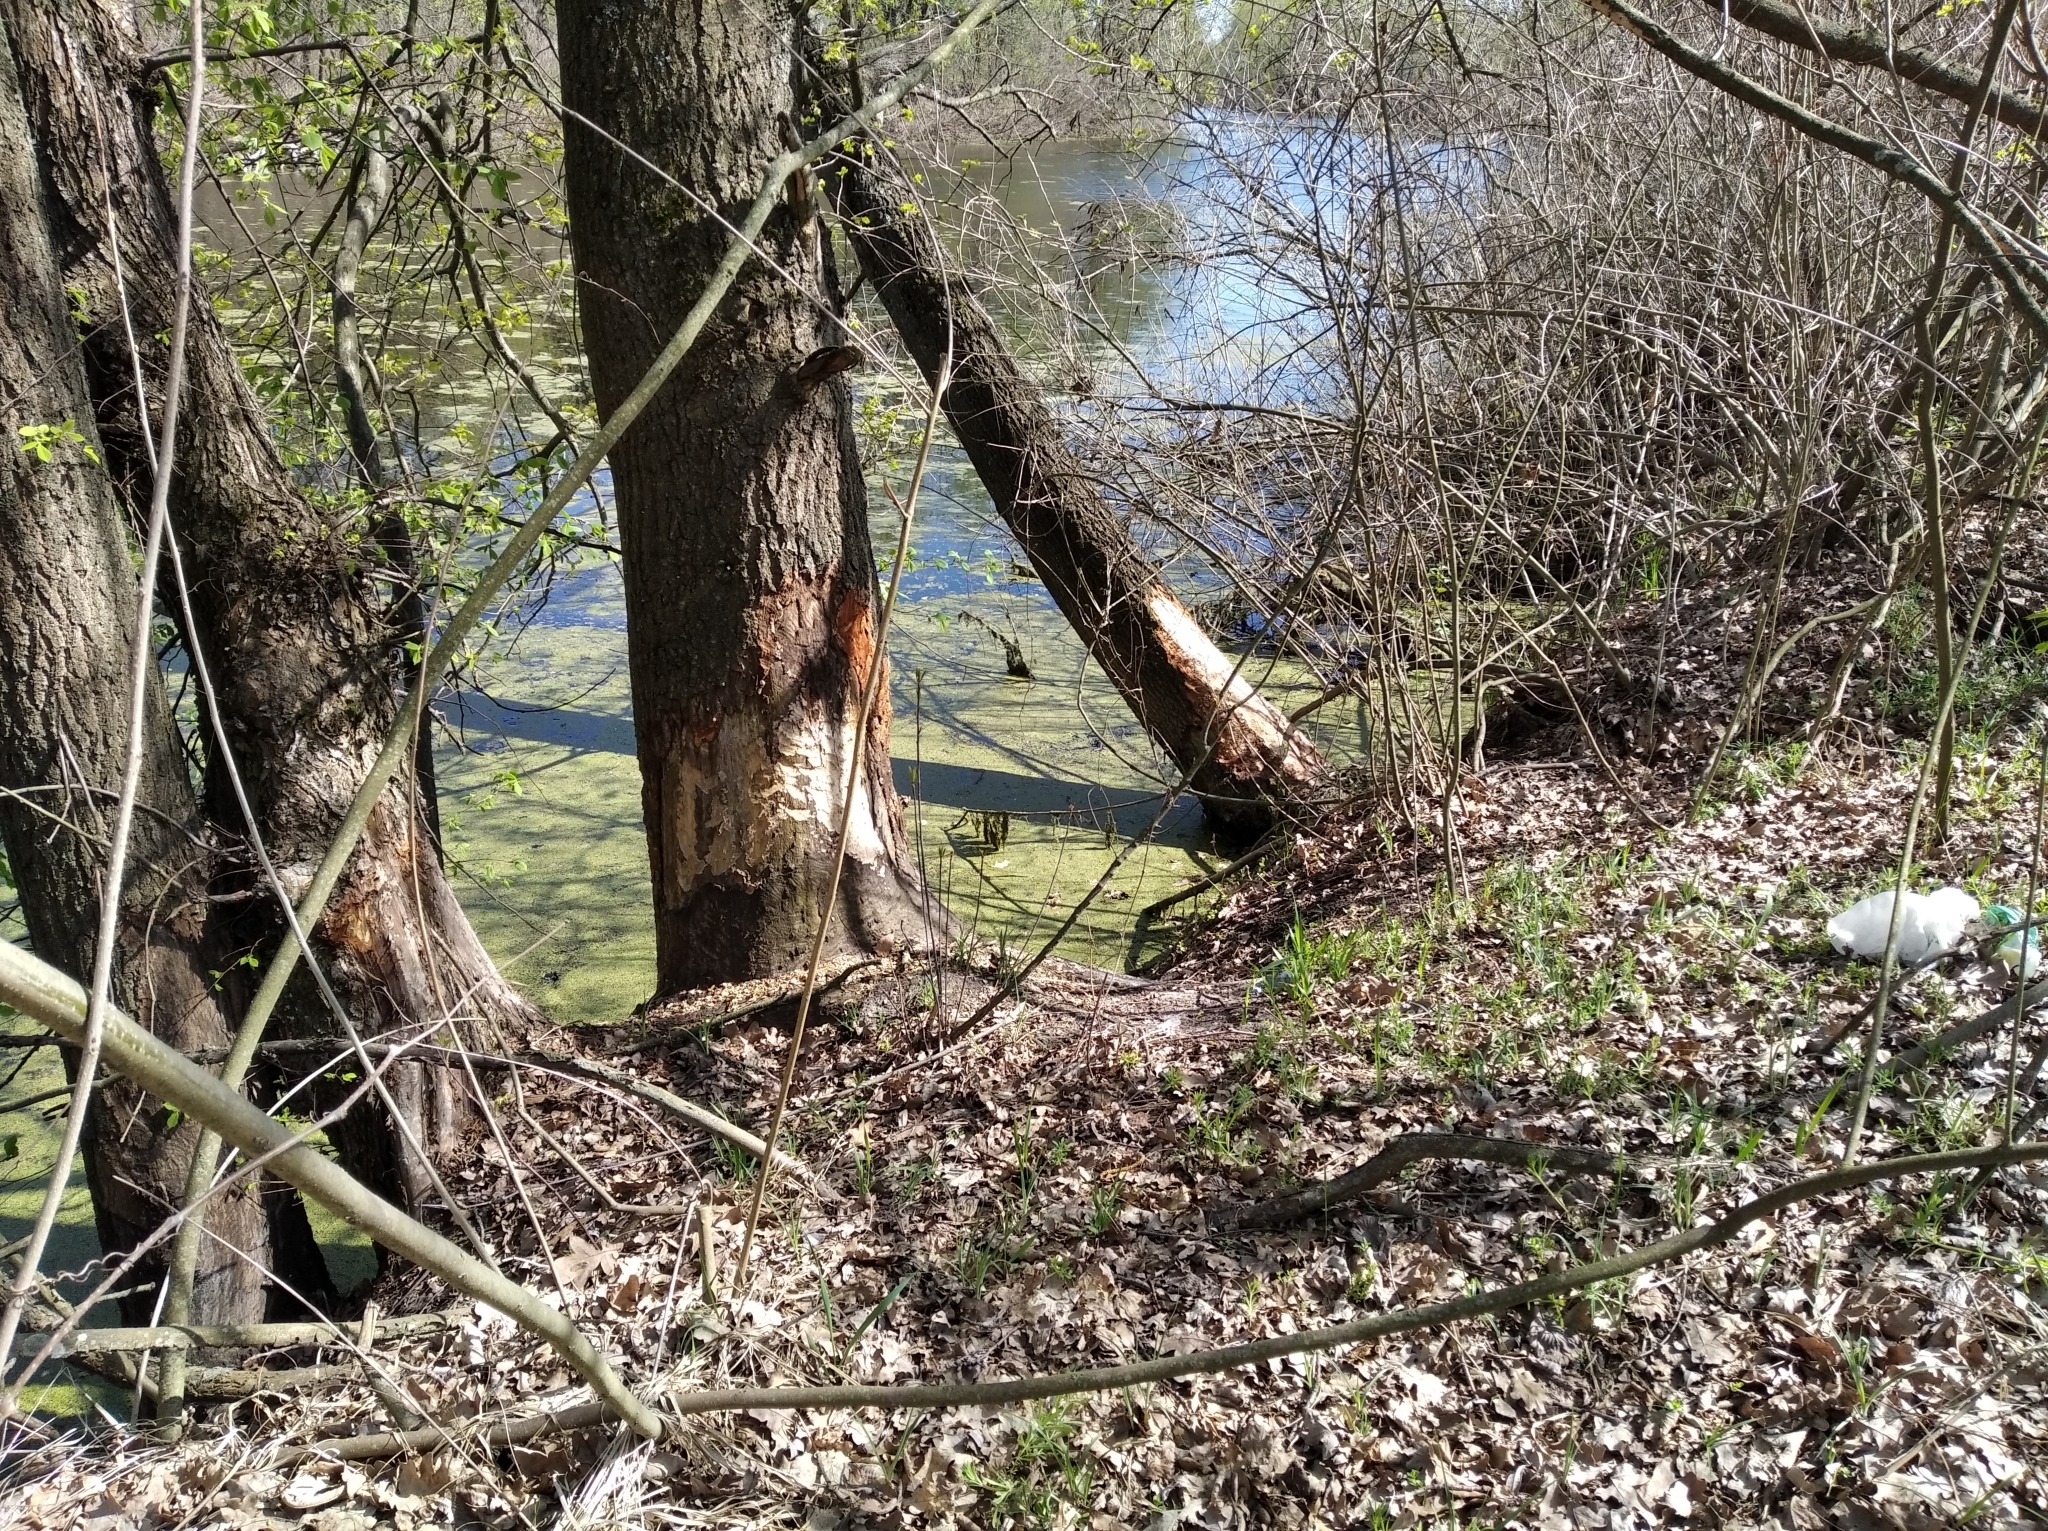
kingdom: Animalia
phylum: Chordata
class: Mammalia
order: Rodentia
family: Castoridae
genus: Castor
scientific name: Castor fiber
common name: Eurasian beaver
